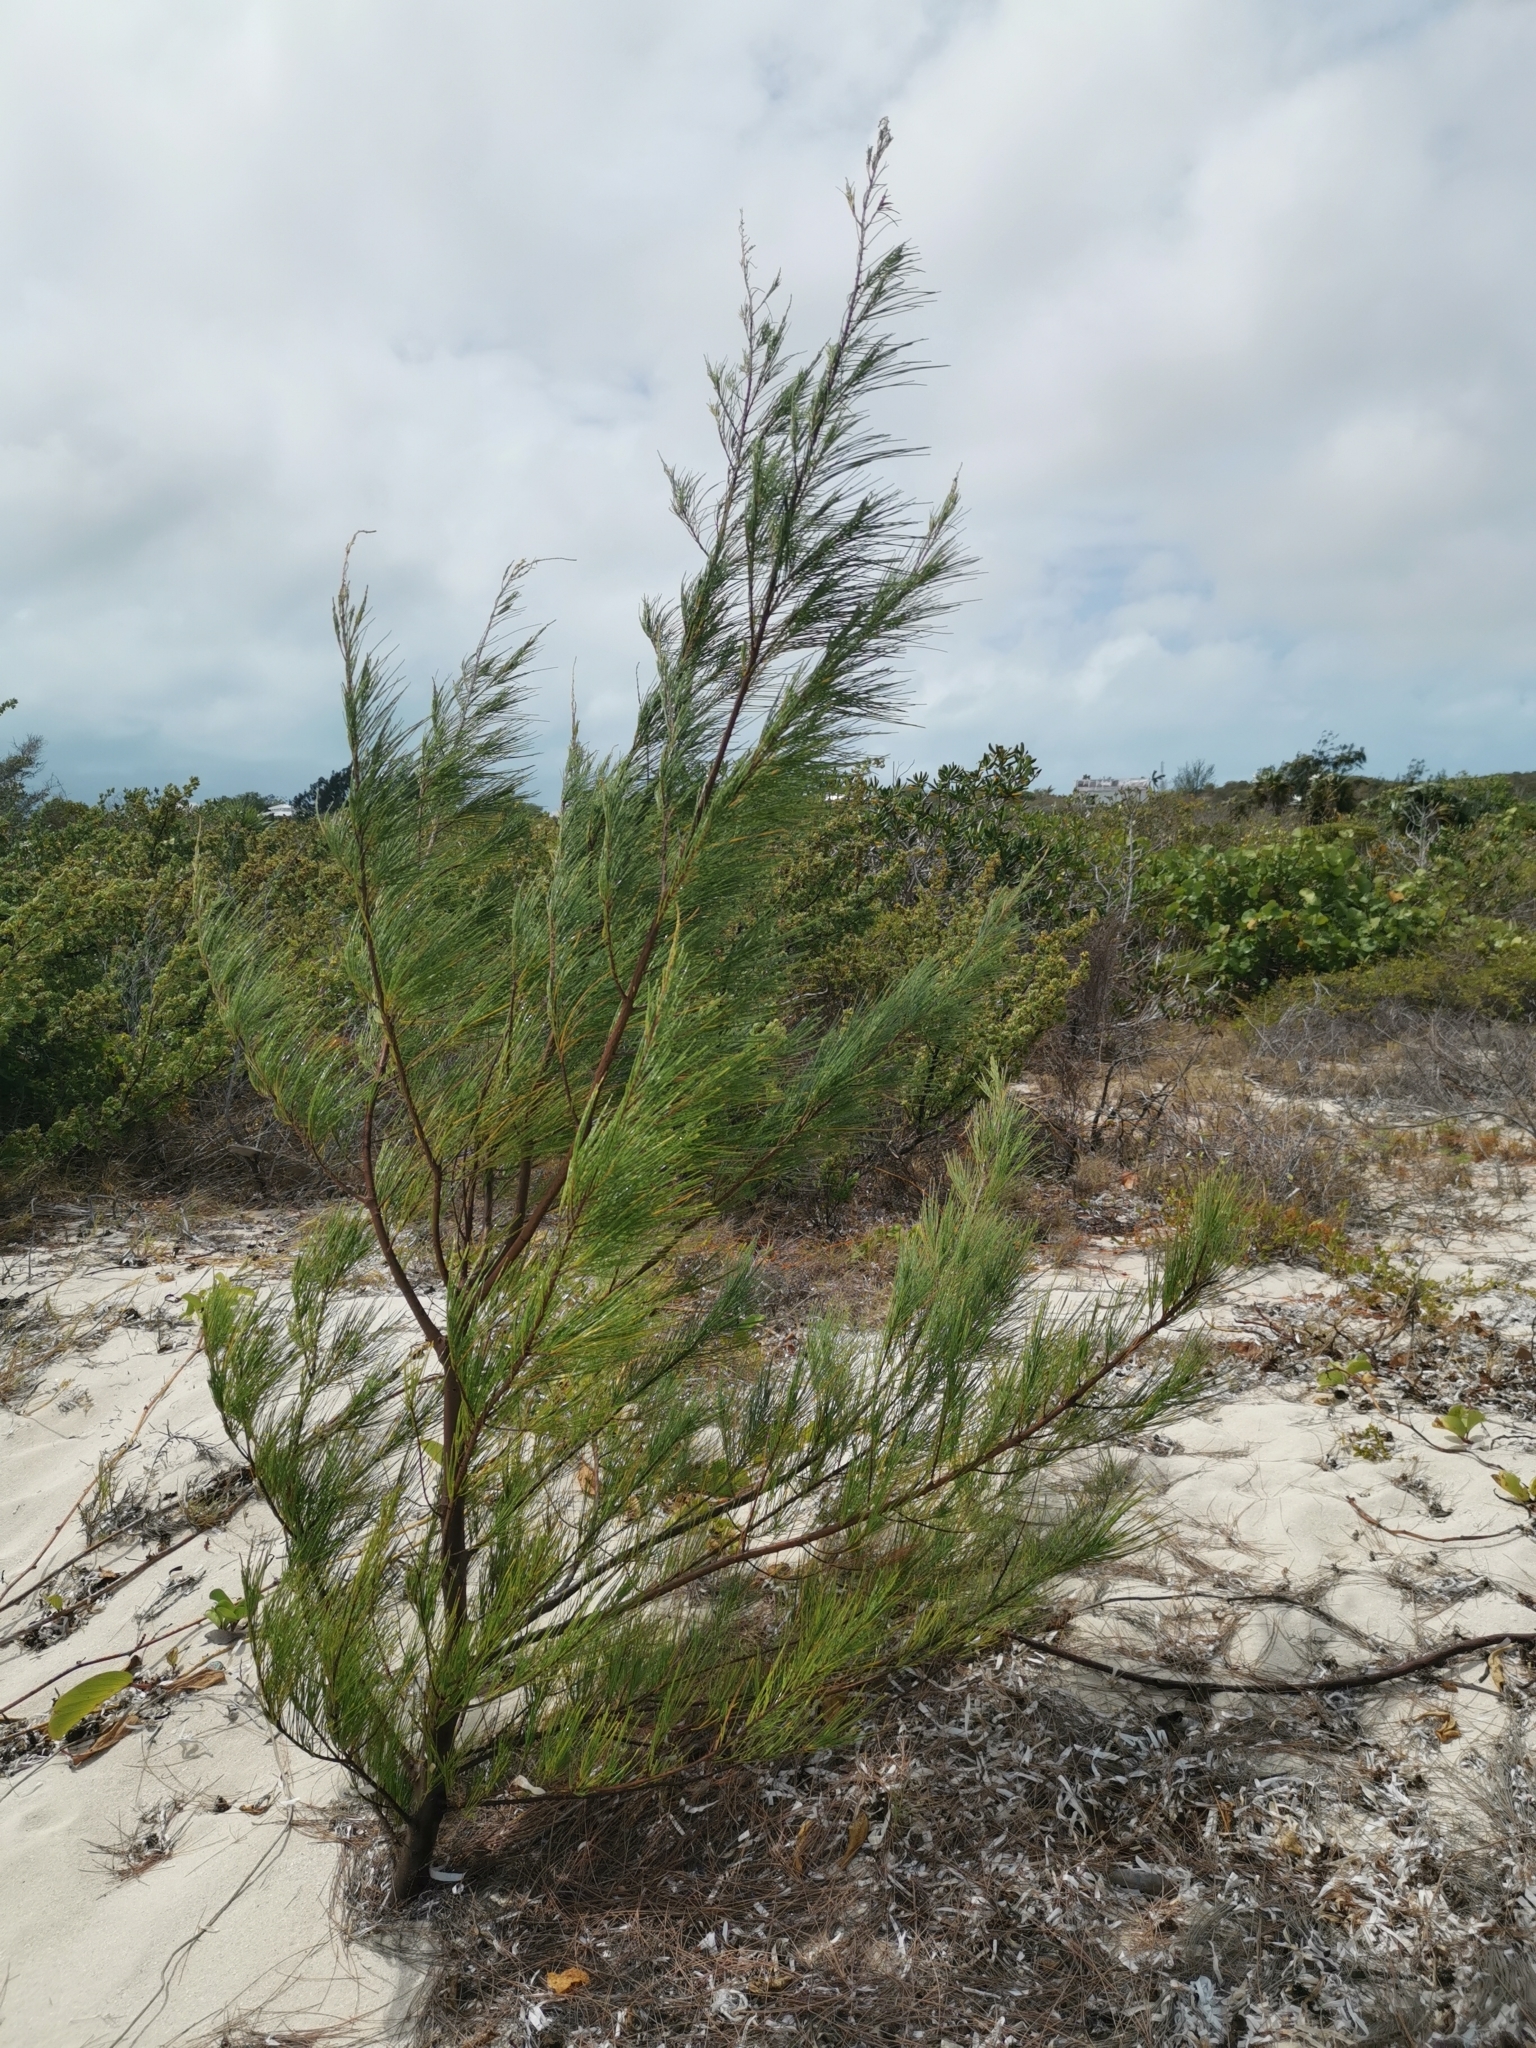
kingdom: Plantae
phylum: Tracheophyta
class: Magnoliopsida
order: Fagales
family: Casuarinaceae
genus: Casuarina
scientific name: Casuarina equisetifolia
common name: Beach sheoak
